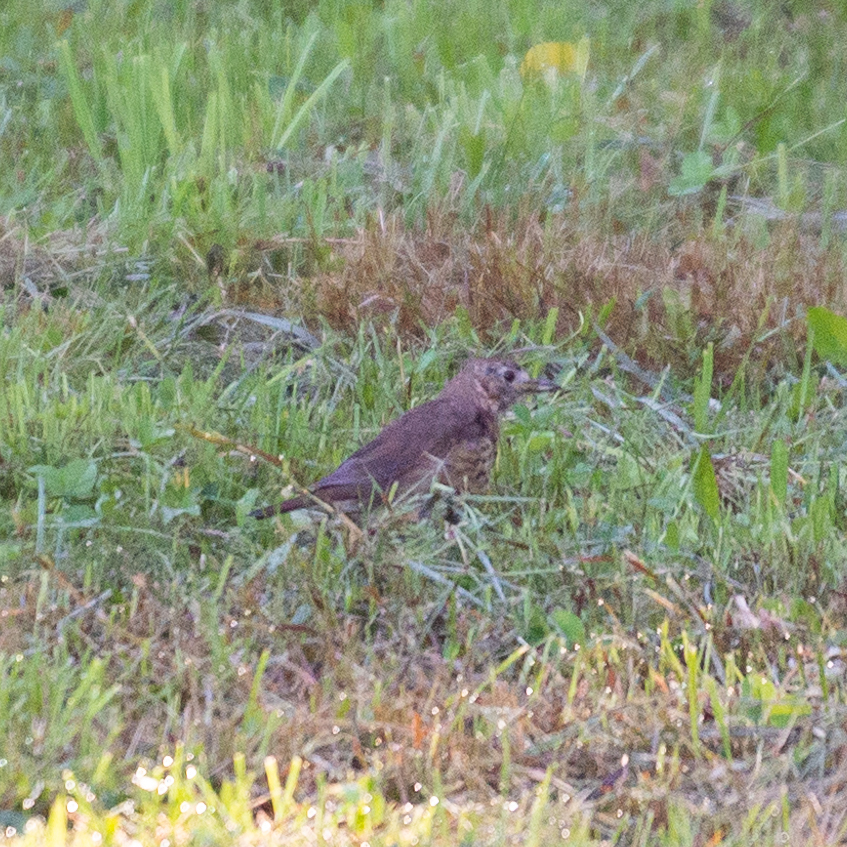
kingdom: Animalia
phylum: Chordata
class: Aves
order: Passeriformes
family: Turdidae
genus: Turdus
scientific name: Turdus philomelos
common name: Song thrush
